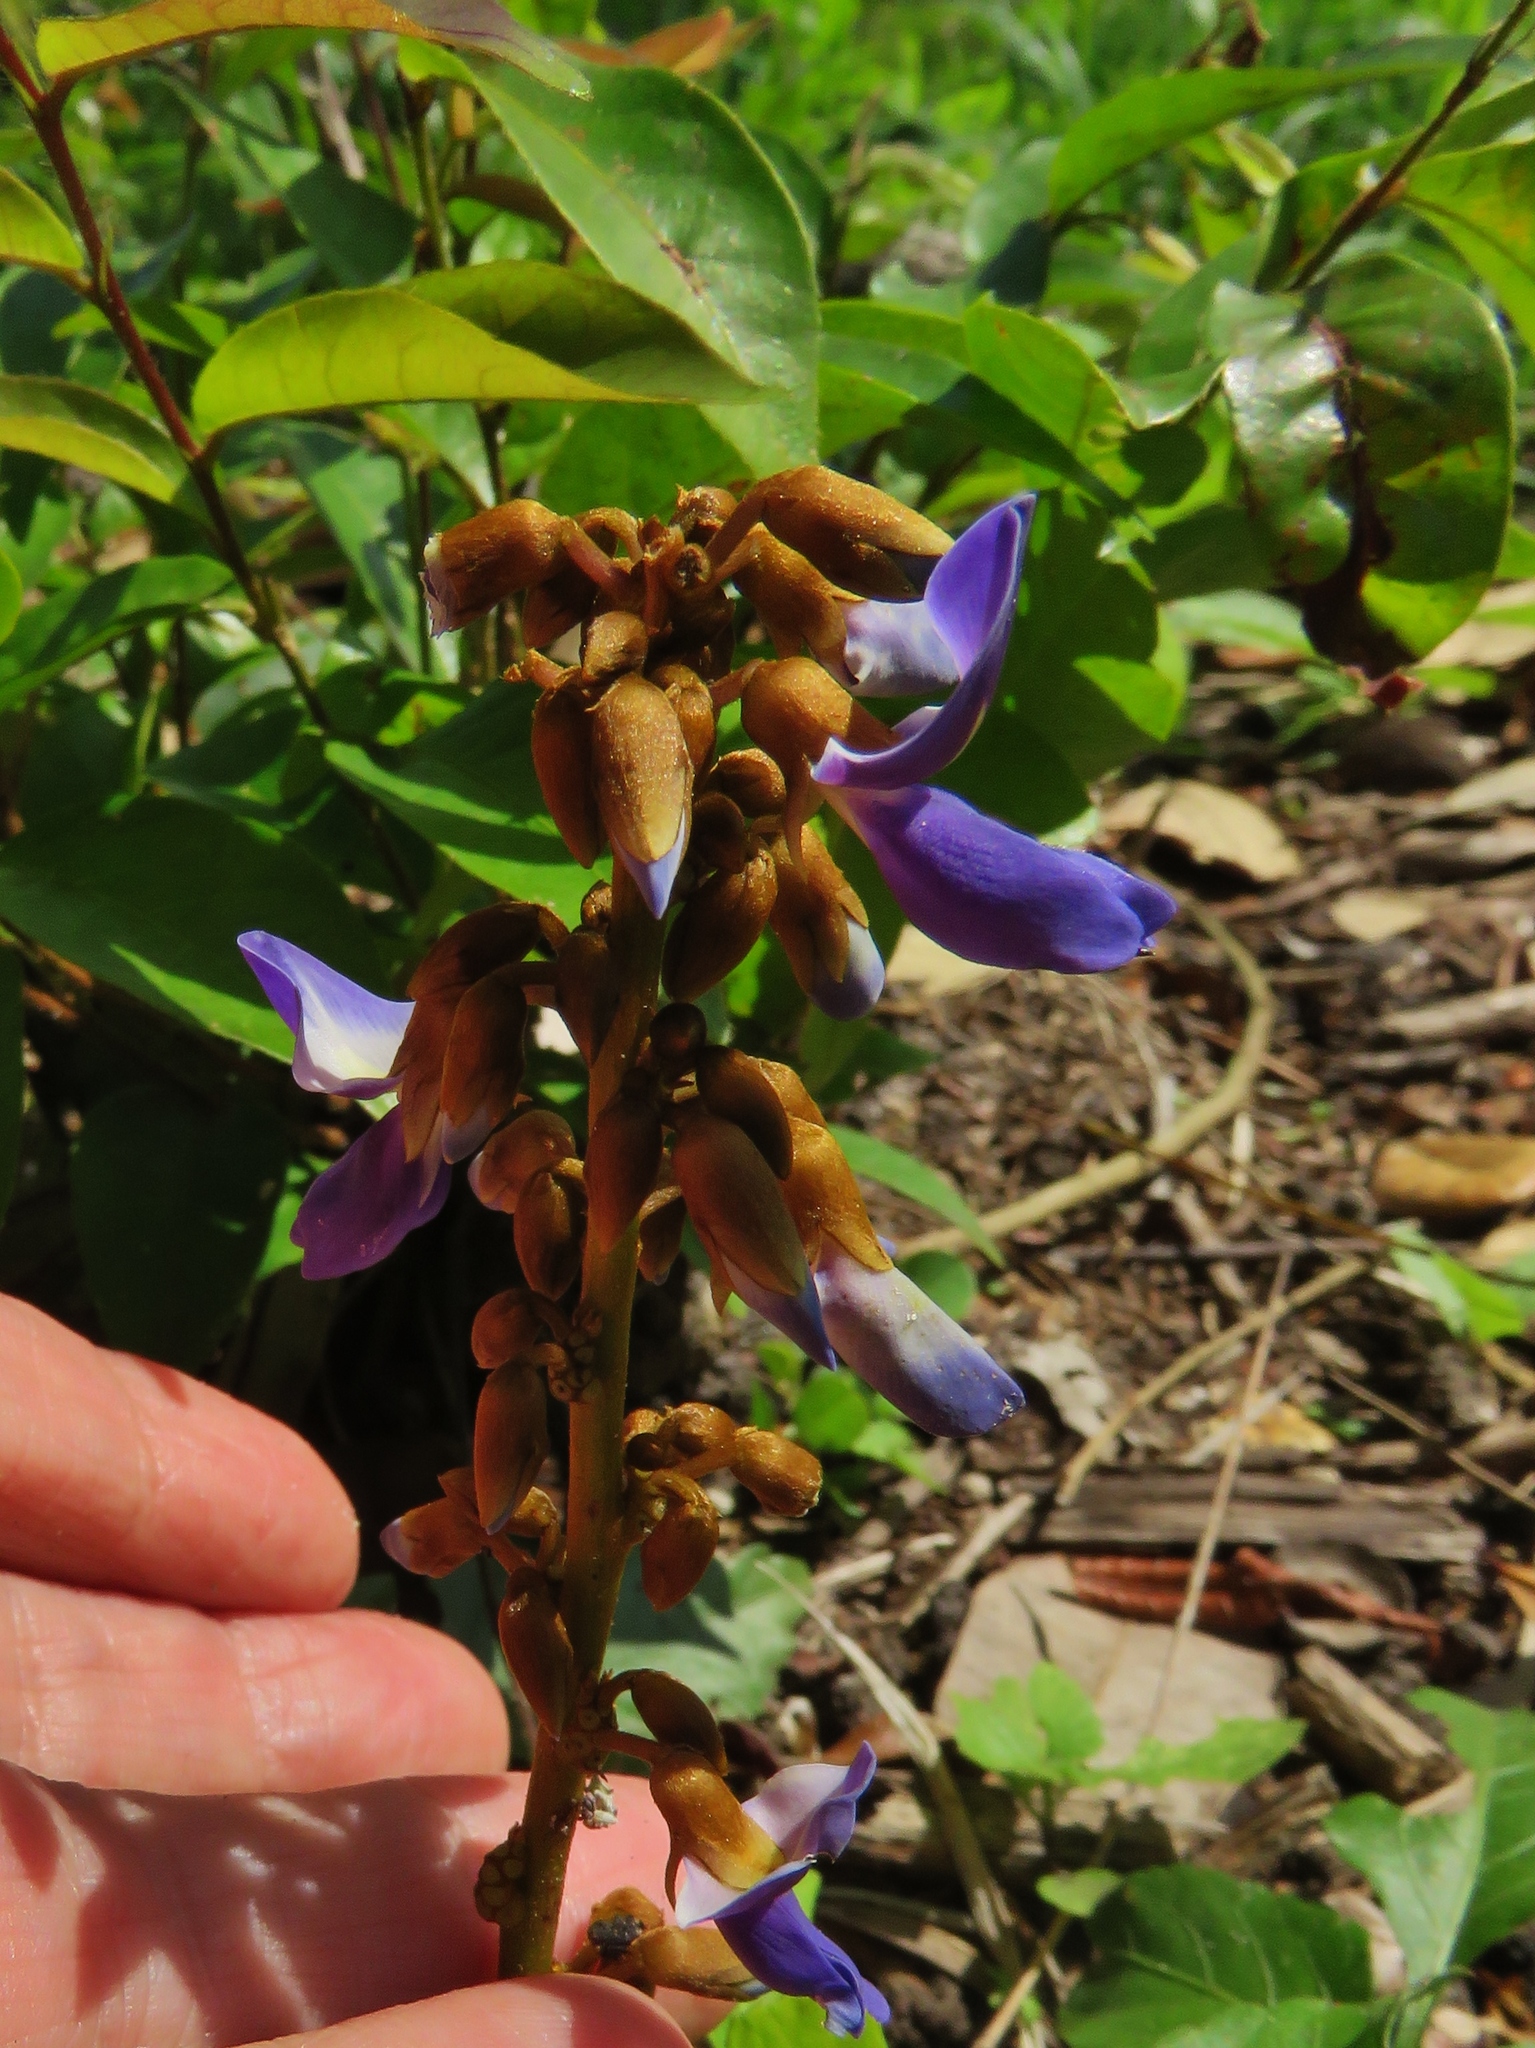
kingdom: Plantae
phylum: Tracheophyta
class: Magnoliopsida
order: Fabales
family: Fabaceae
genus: Pachyrhizus
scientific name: Pachyrhizus erosus
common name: Yam bean
